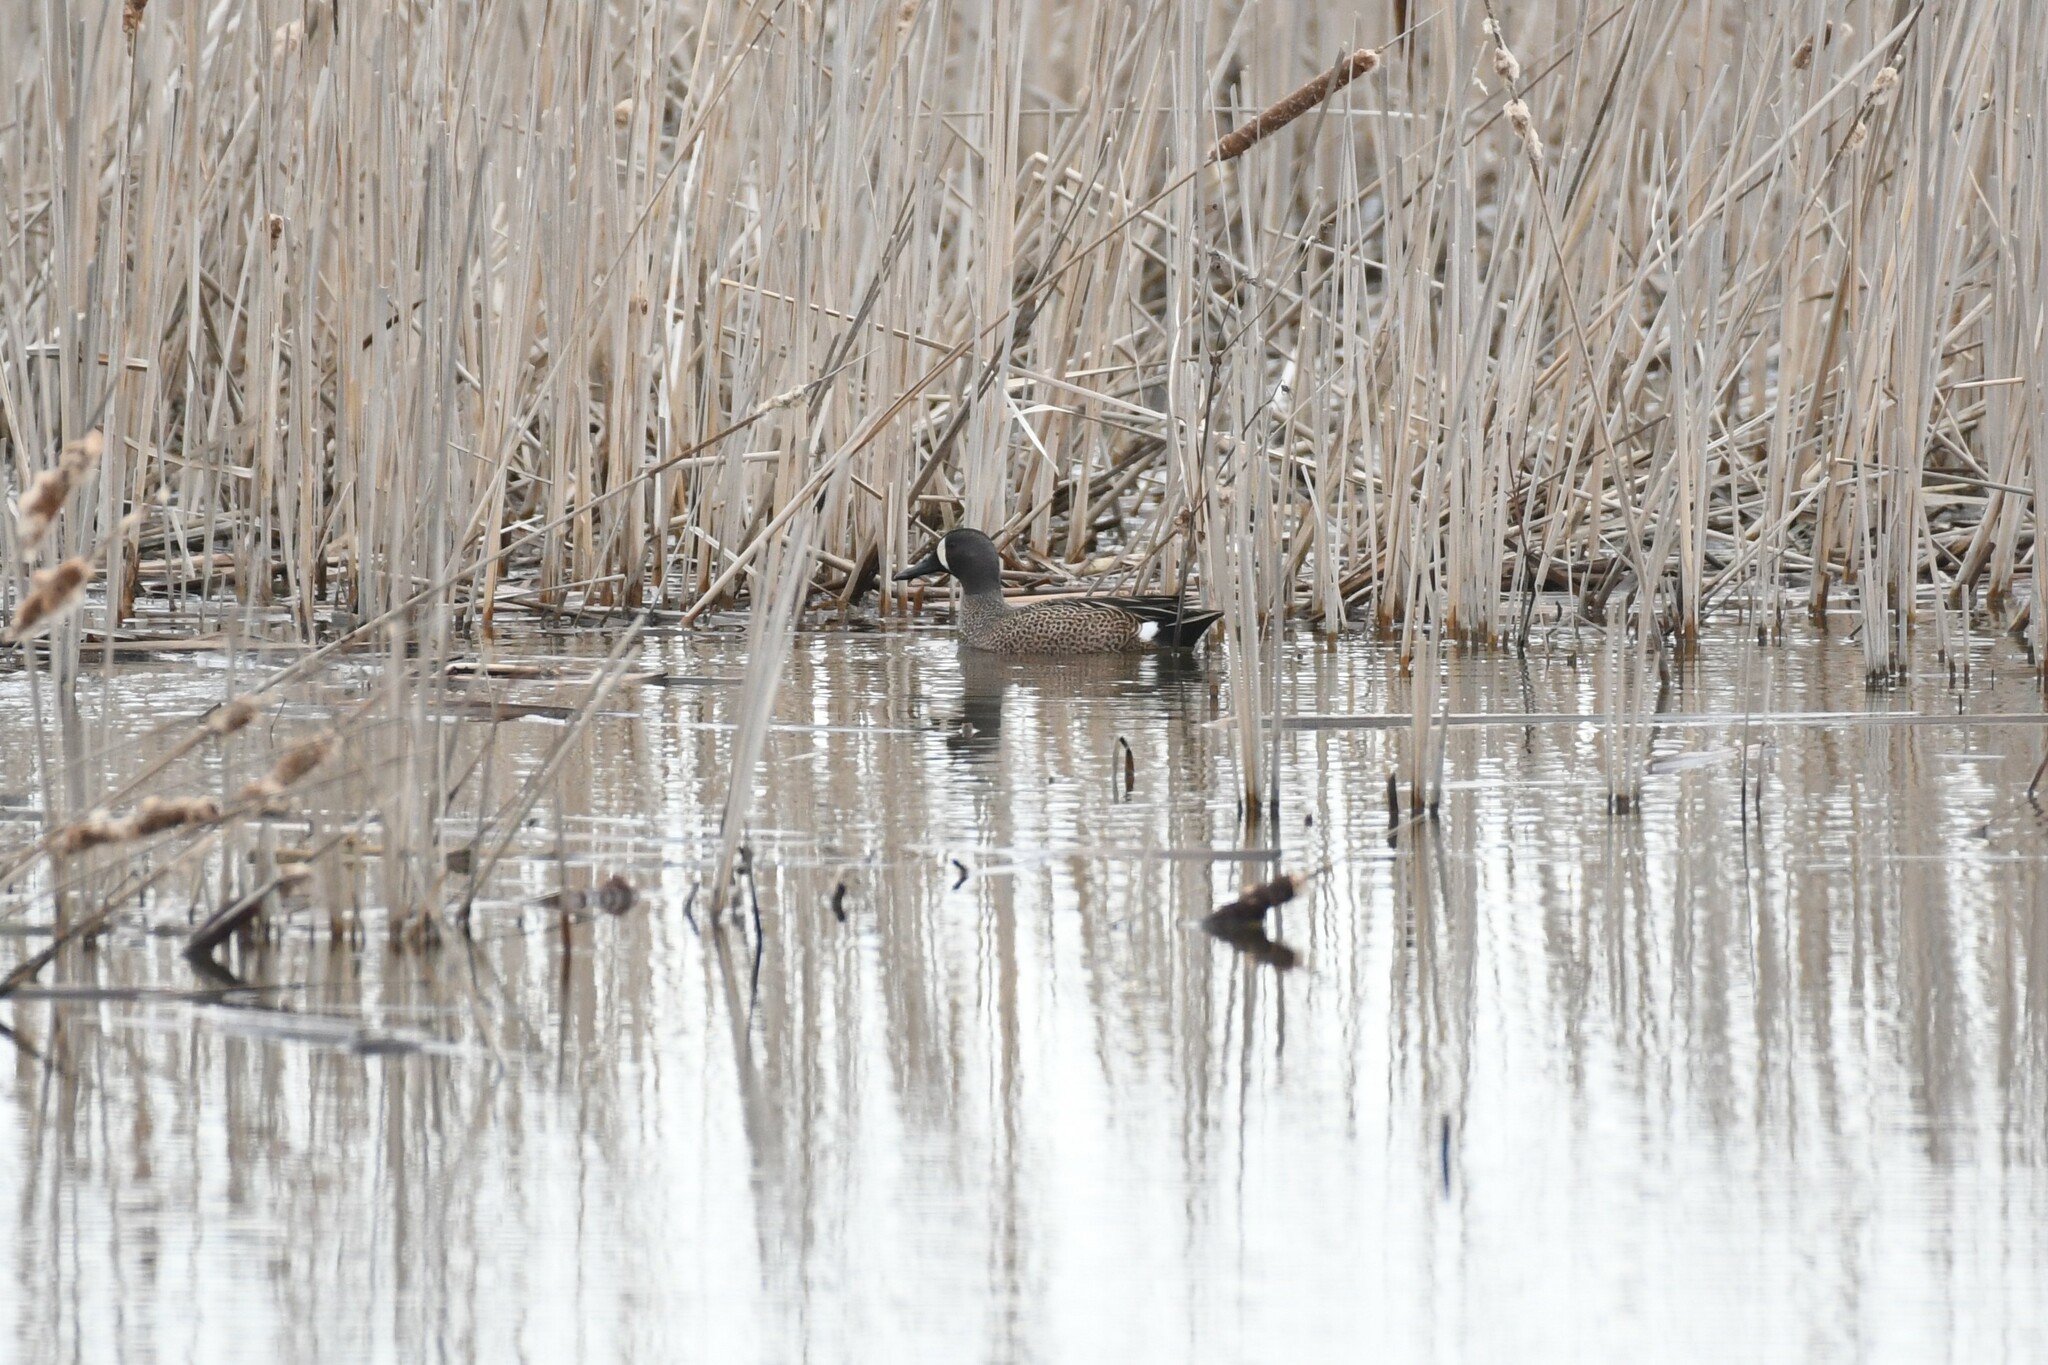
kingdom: Animalia
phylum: Chordata
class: Aves
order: Anseriformes
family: Anatidae
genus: Spatula
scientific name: Spatula discors
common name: Blue-winged teal
